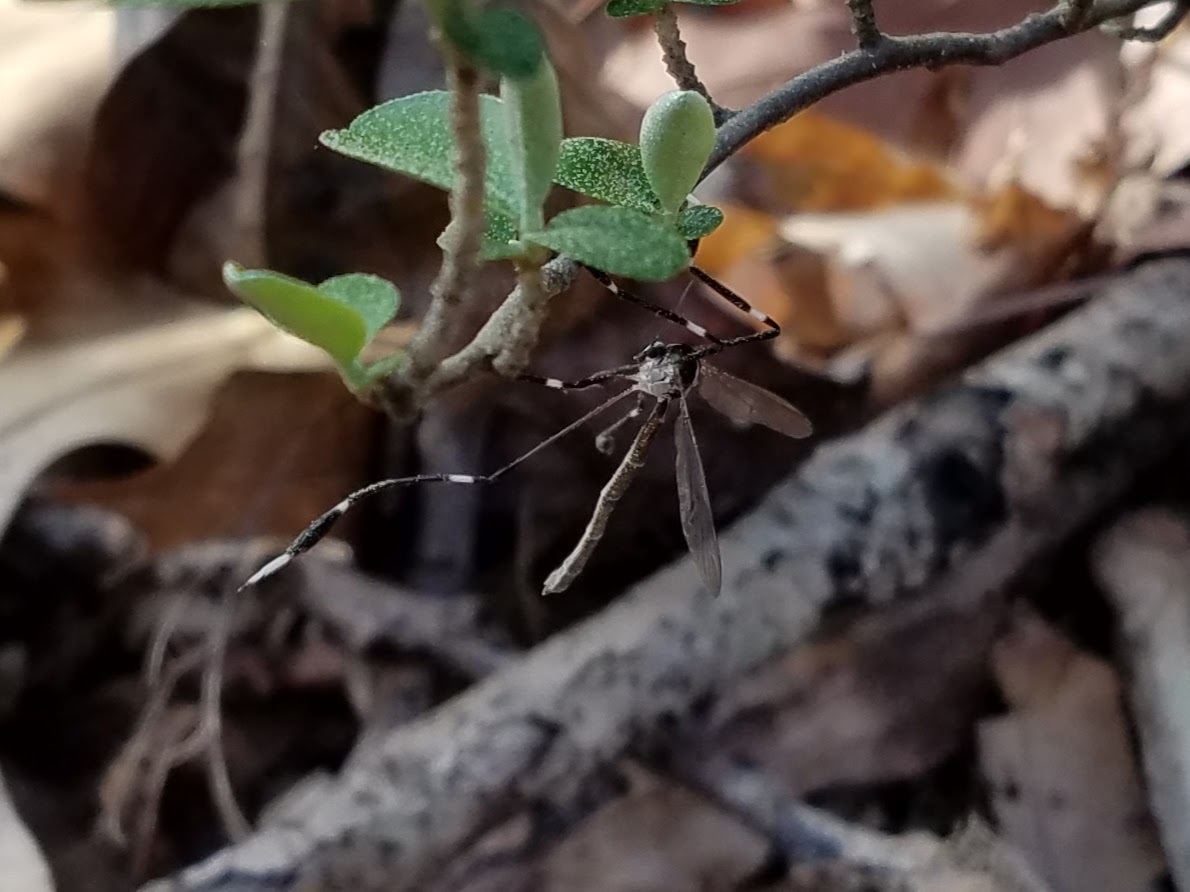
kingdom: Animalia
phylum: Arthropoda
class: Insecta
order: Diptera
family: Ptychopteridae
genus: Bittacomorpha
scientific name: Bittacomorpha clavipes
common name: Eastern phantom crane fly
